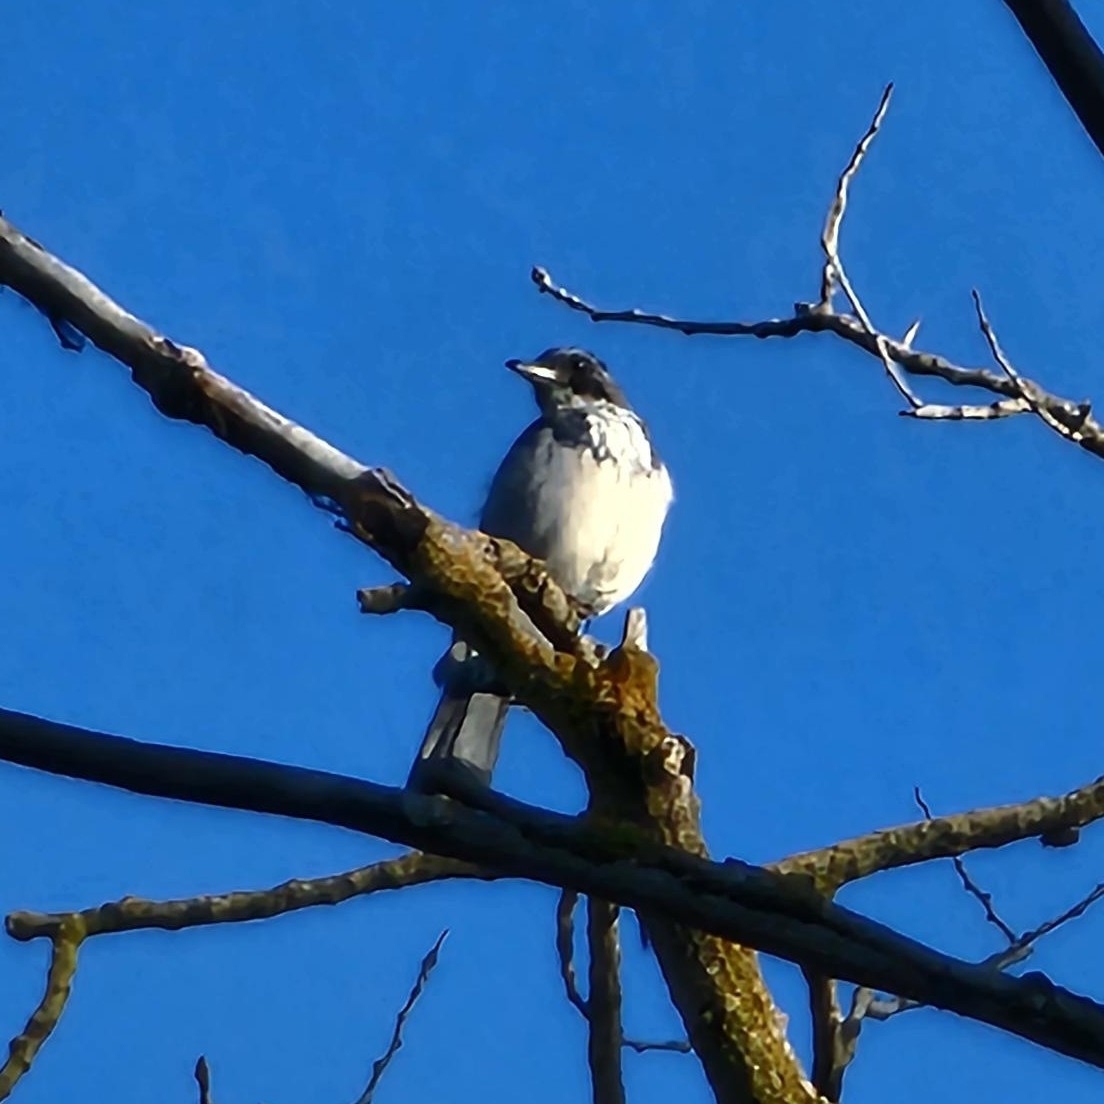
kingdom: Animalia
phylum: Chordata
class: Aves
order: Passeriformes
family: Corvidae
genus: Aphelocoma
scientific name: Aphelocoma californica
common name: California scrub-jay
